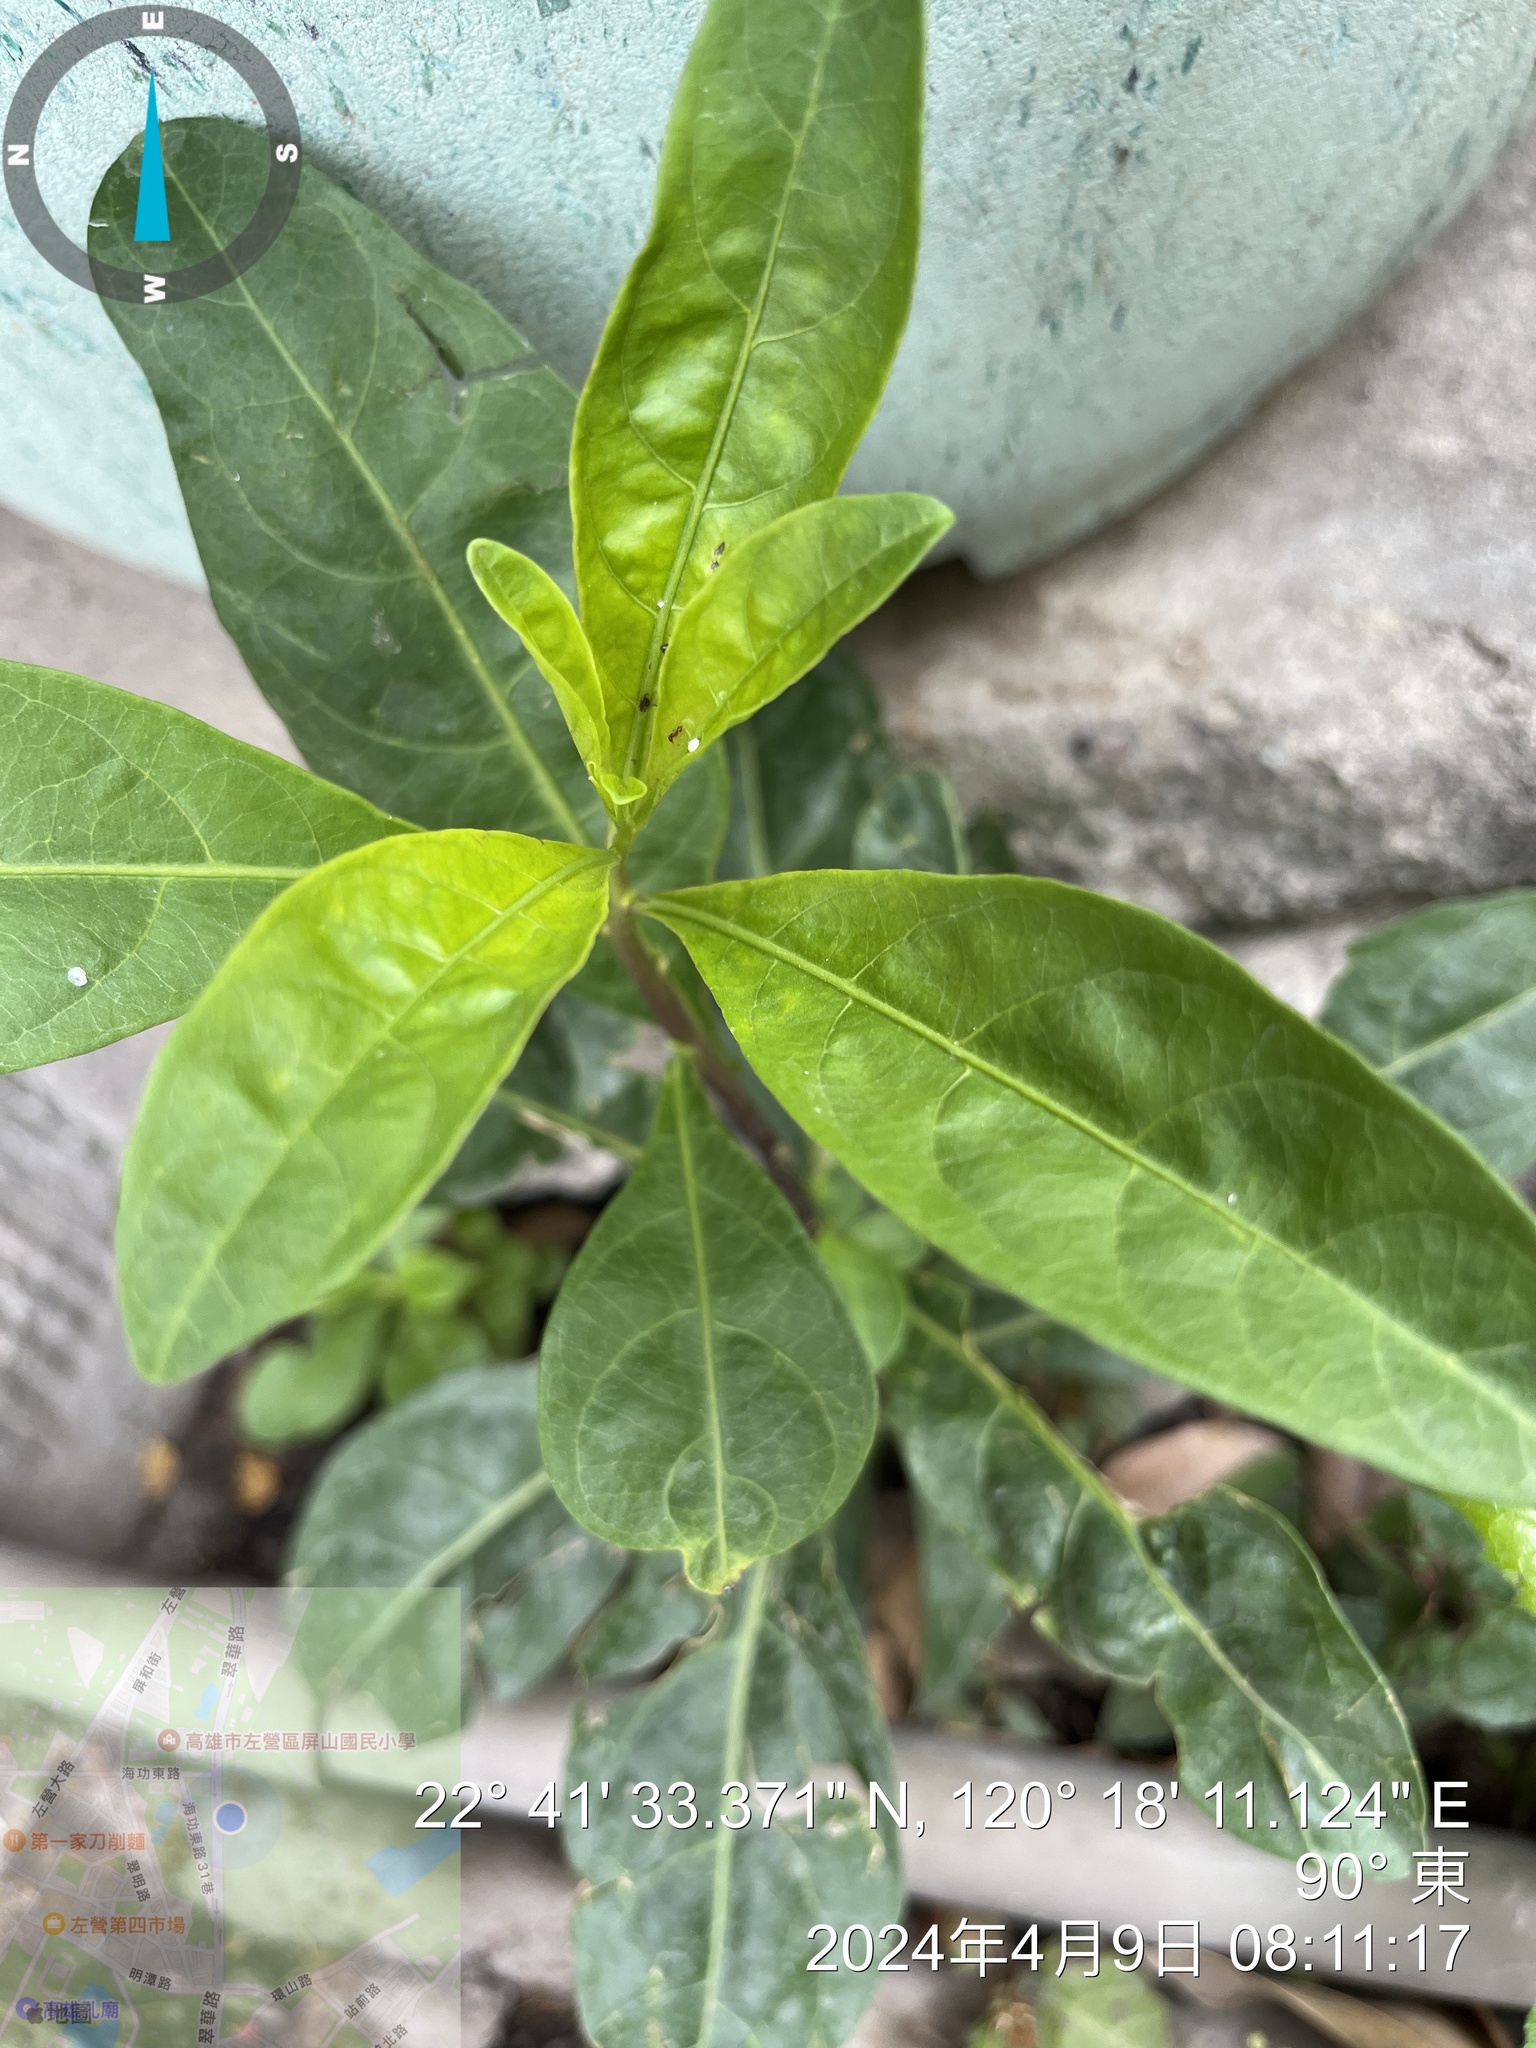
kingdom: Plantae
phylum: Tracheophyta
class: Magnoliopsida
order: Solanales
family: Solanaceae
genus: Solanum
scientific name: Solanum diphyllum
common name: Twoleaf nightshade
